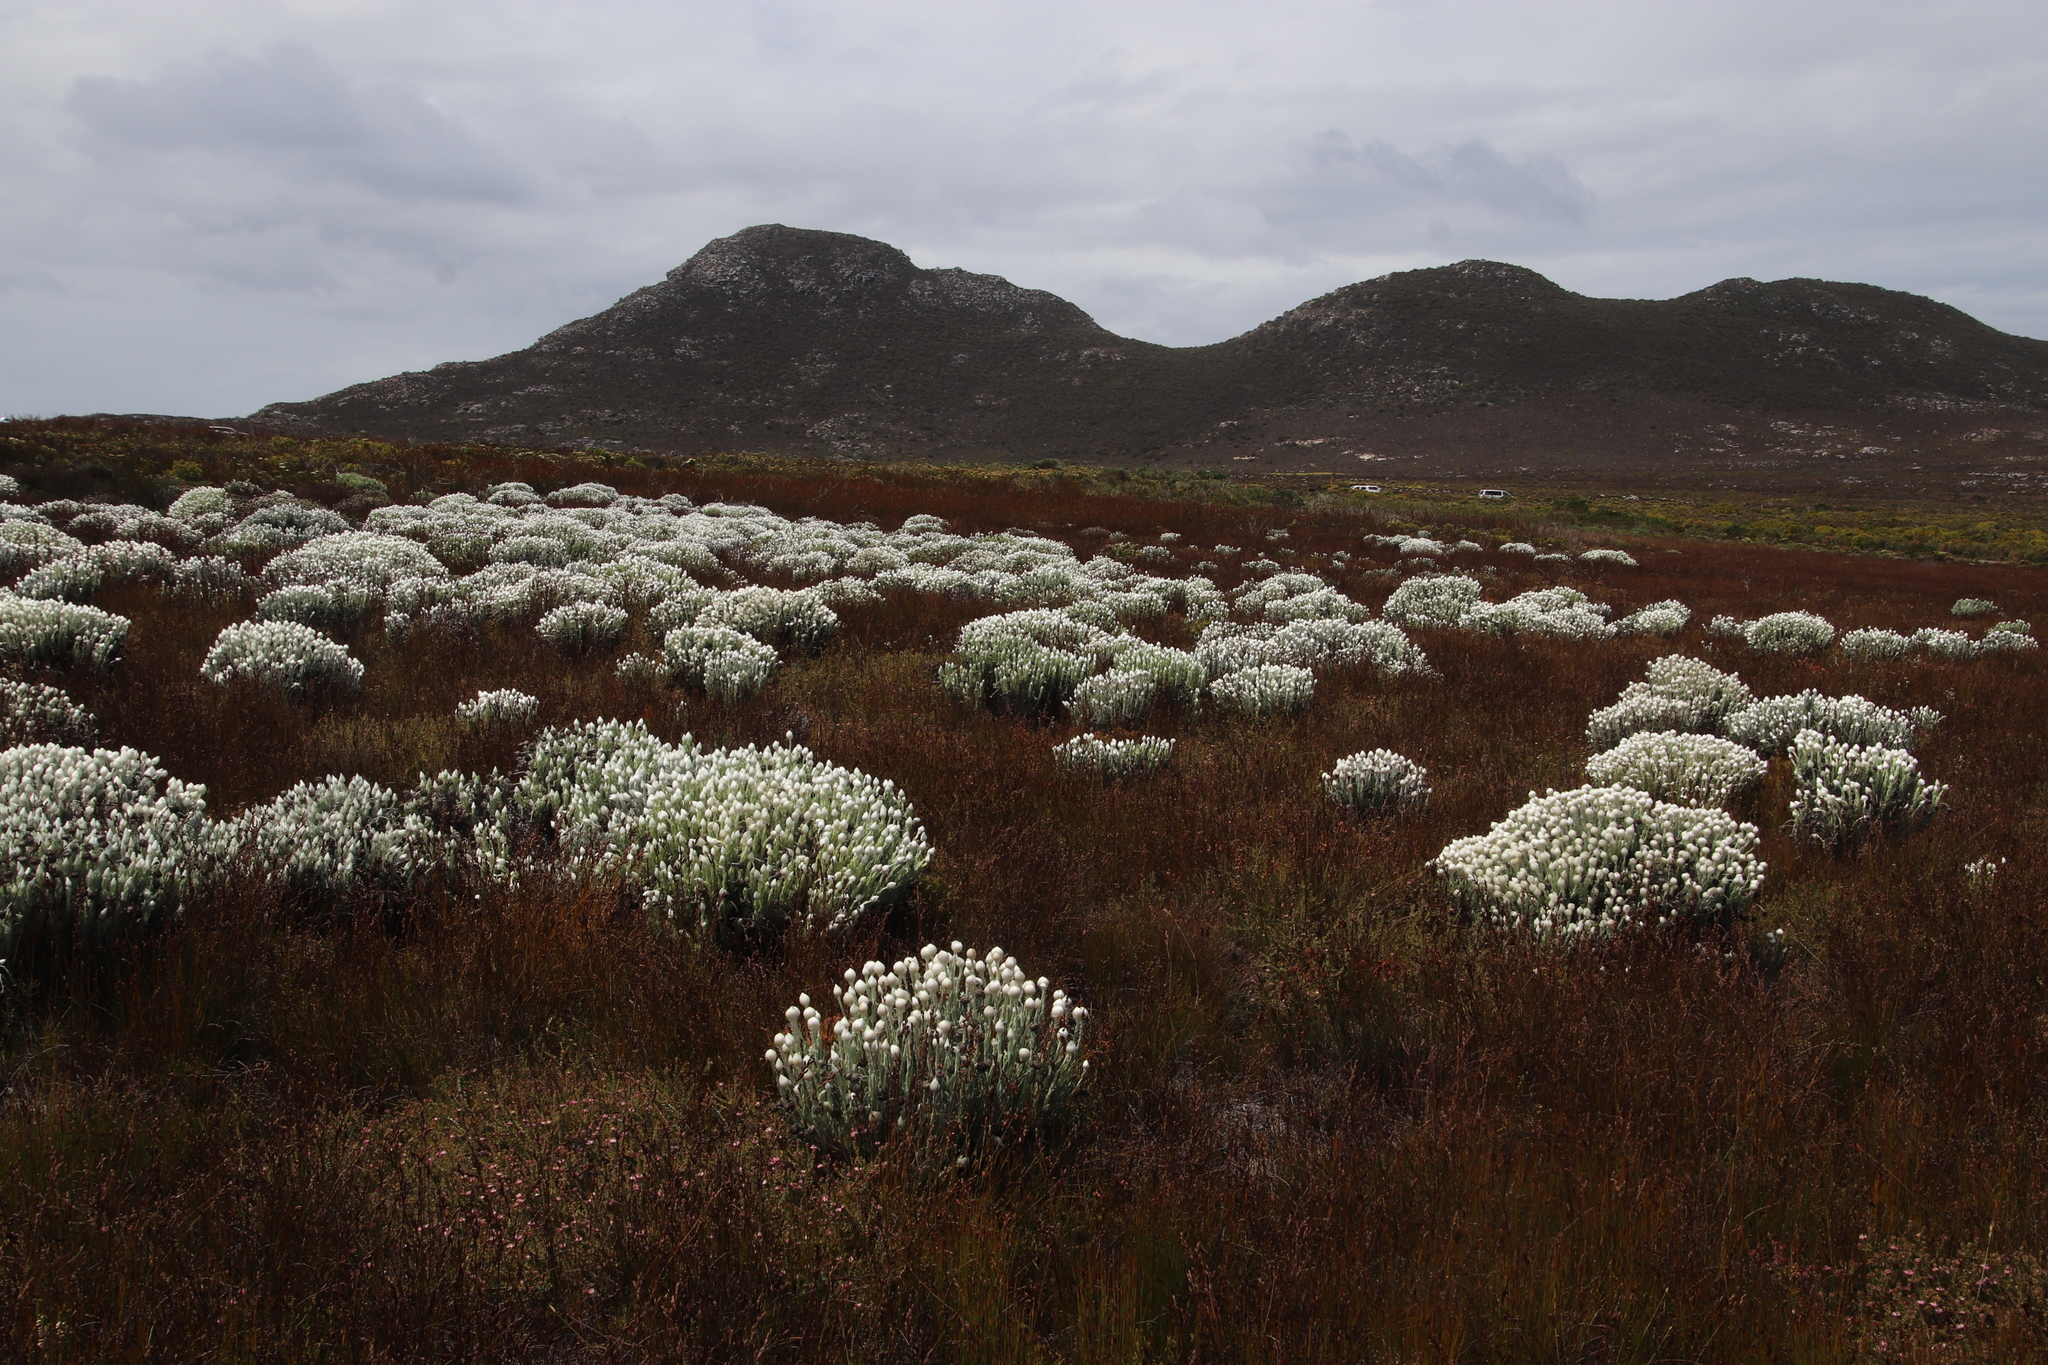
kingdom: Plantae
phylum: Tracheophyta
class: Magnoliopsida
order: Asterales
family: Asteraceae
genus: Syncarpha
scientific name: Syncarpha vestita
